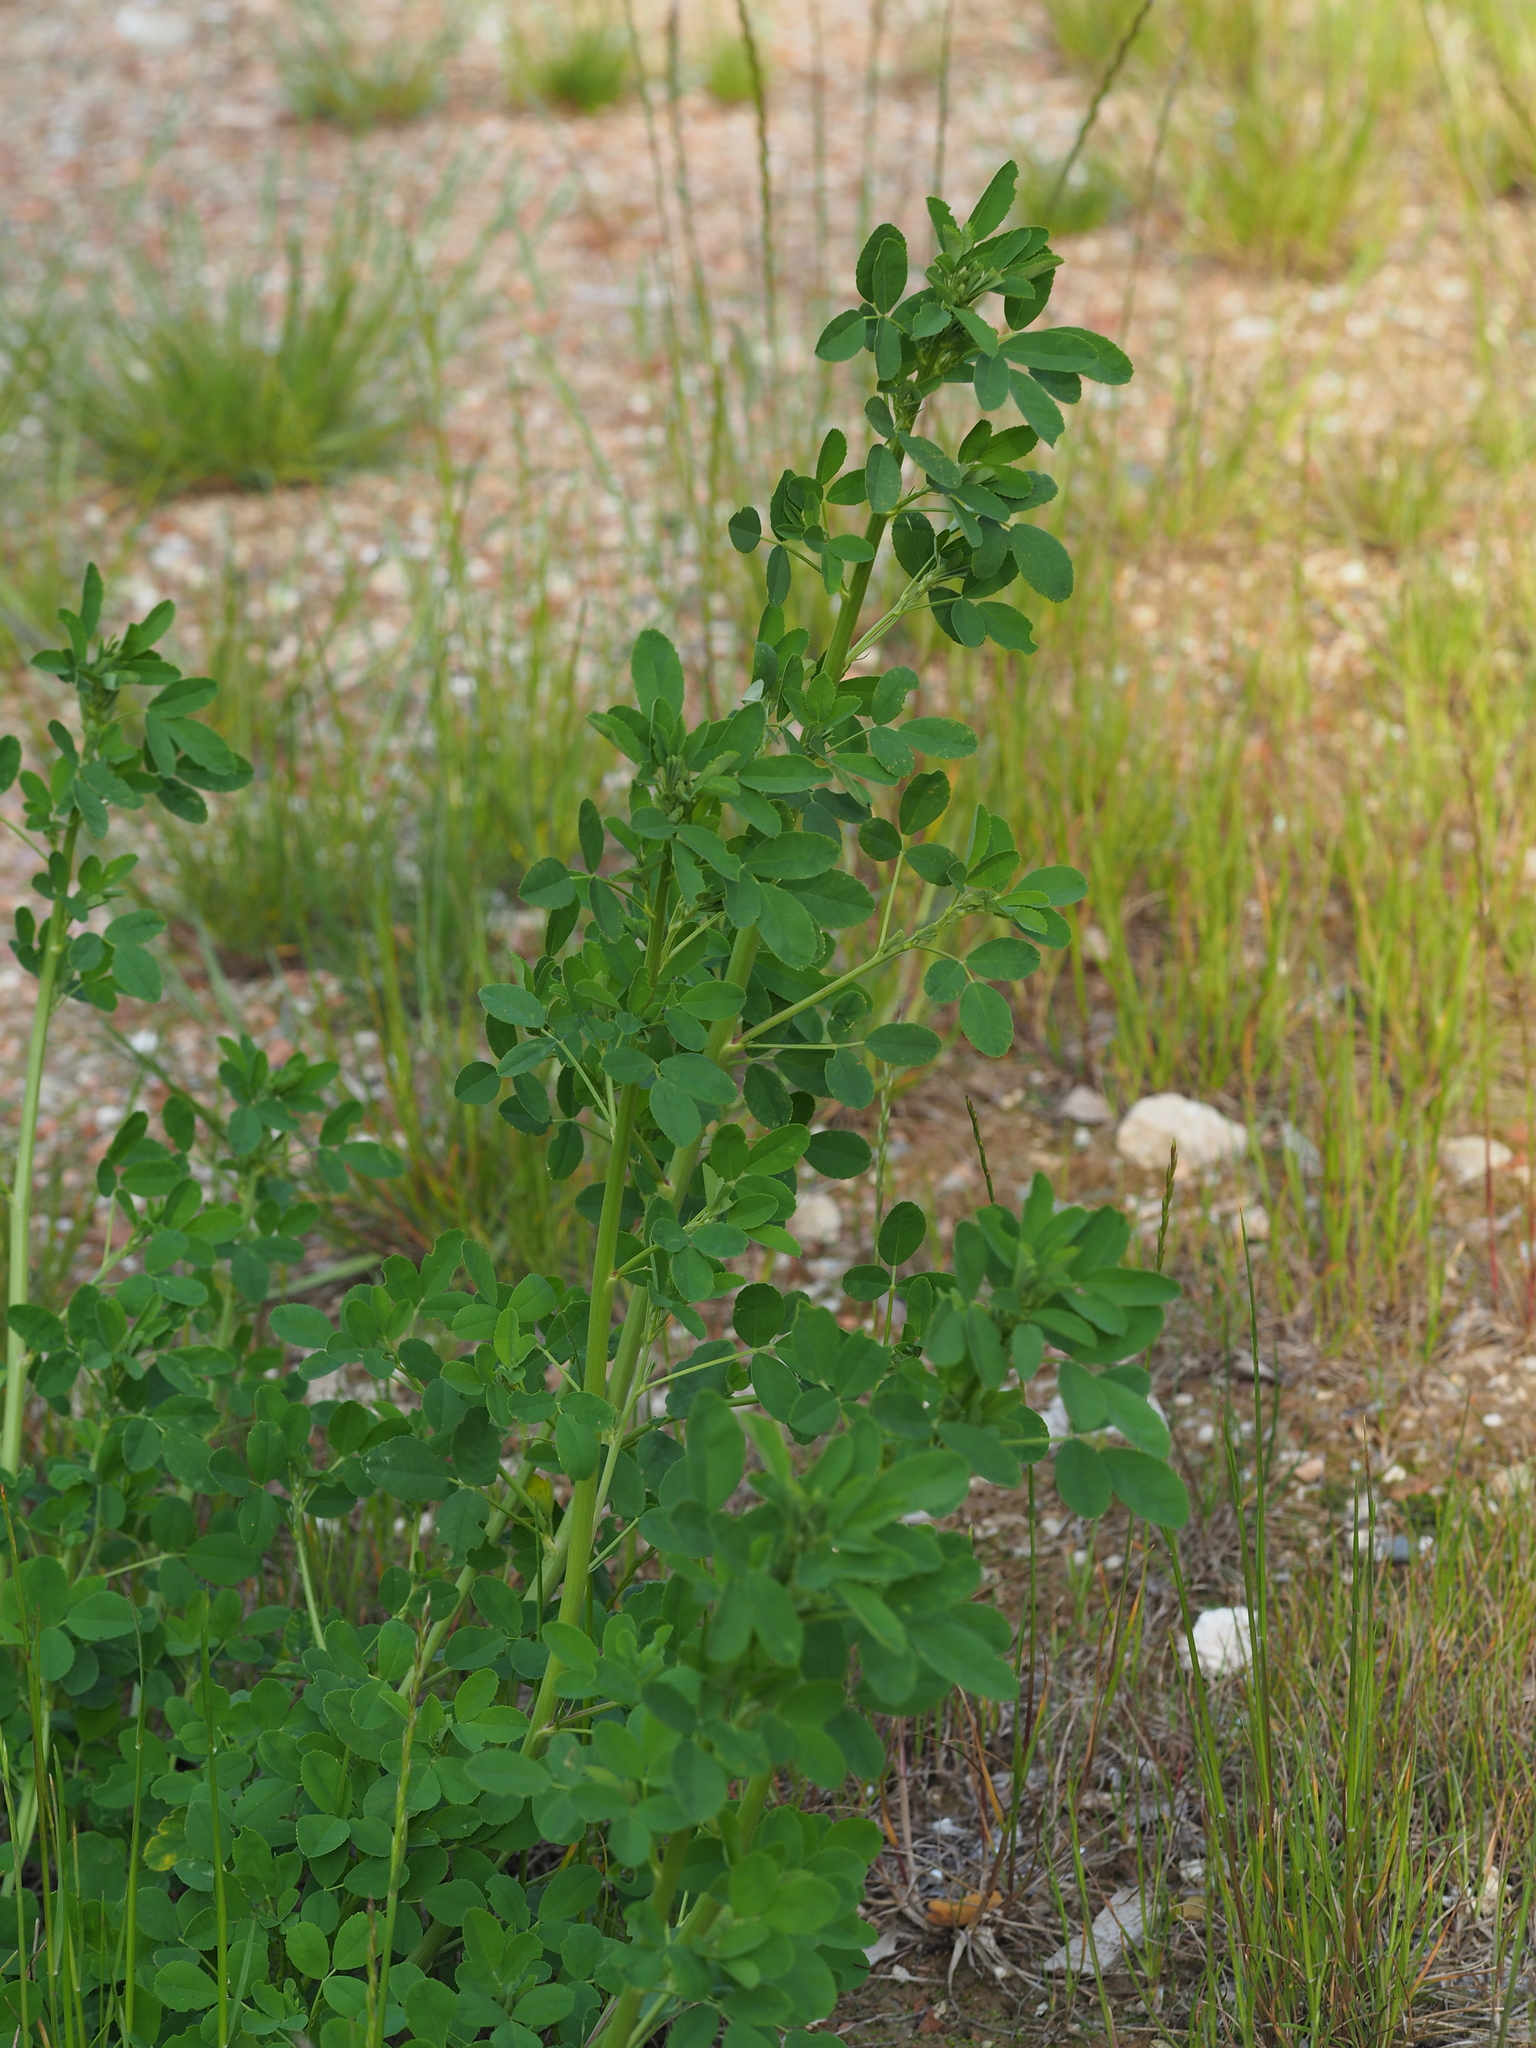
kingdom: Plantae
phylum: Tracheophyta
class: Magnoliopsida
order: Fabales
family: Fabaceae
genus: Melilotus
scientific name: Melilotus officinalis
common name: Sweetclover
